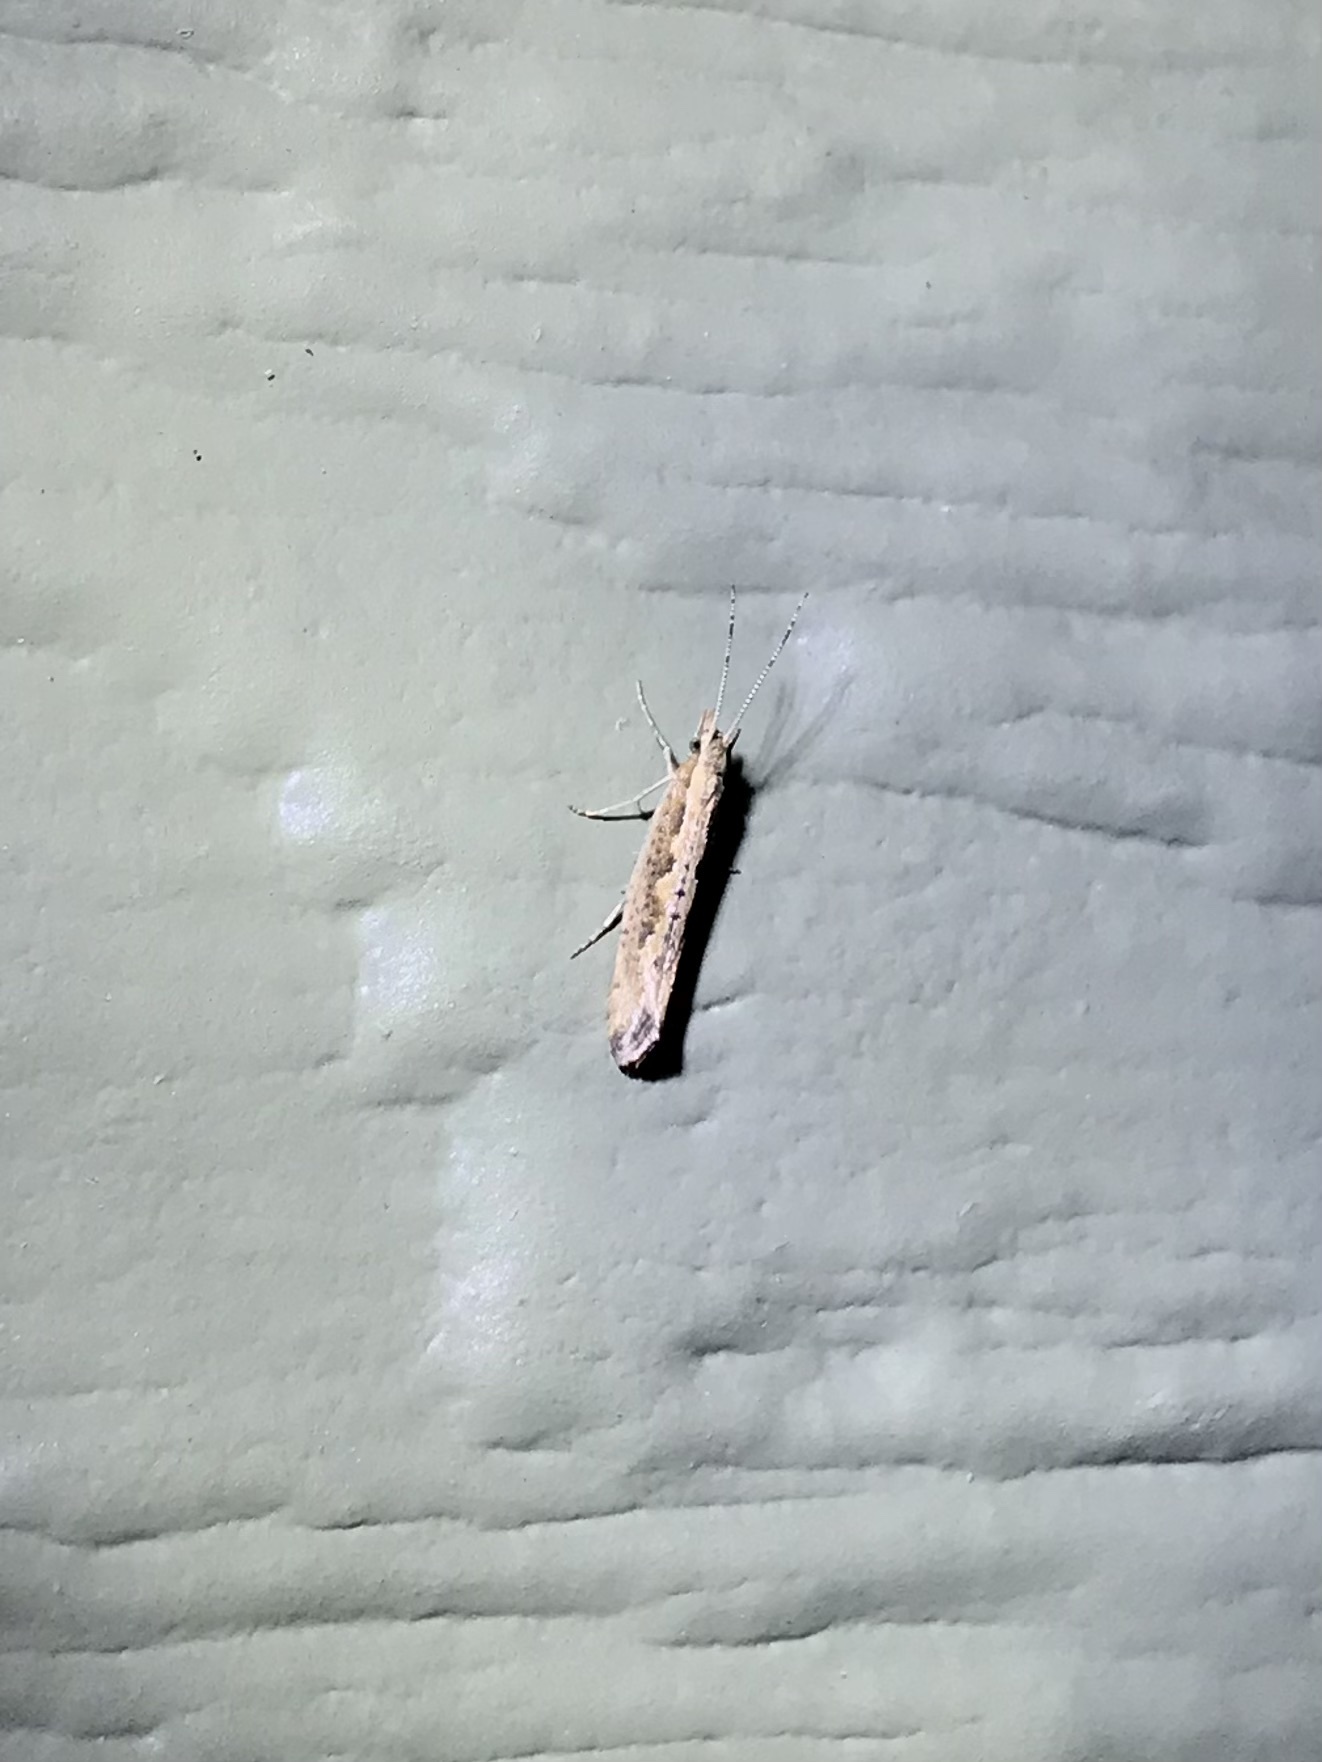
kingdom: Animalia
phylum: Arthropoda
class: Insecta
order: Lepidoptera
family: Plutellidae
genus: Plutella
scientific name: Plutella xylostella
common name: Diamond-back moth
